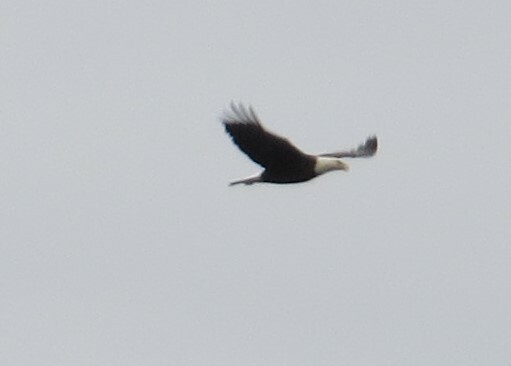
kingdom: Animalia
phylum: Chordata
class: Aves
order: Accipitriformes
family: Accipitridae
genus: Haliaeetus
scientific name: Haliaeetus leucocephalus
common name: Bald eagle
